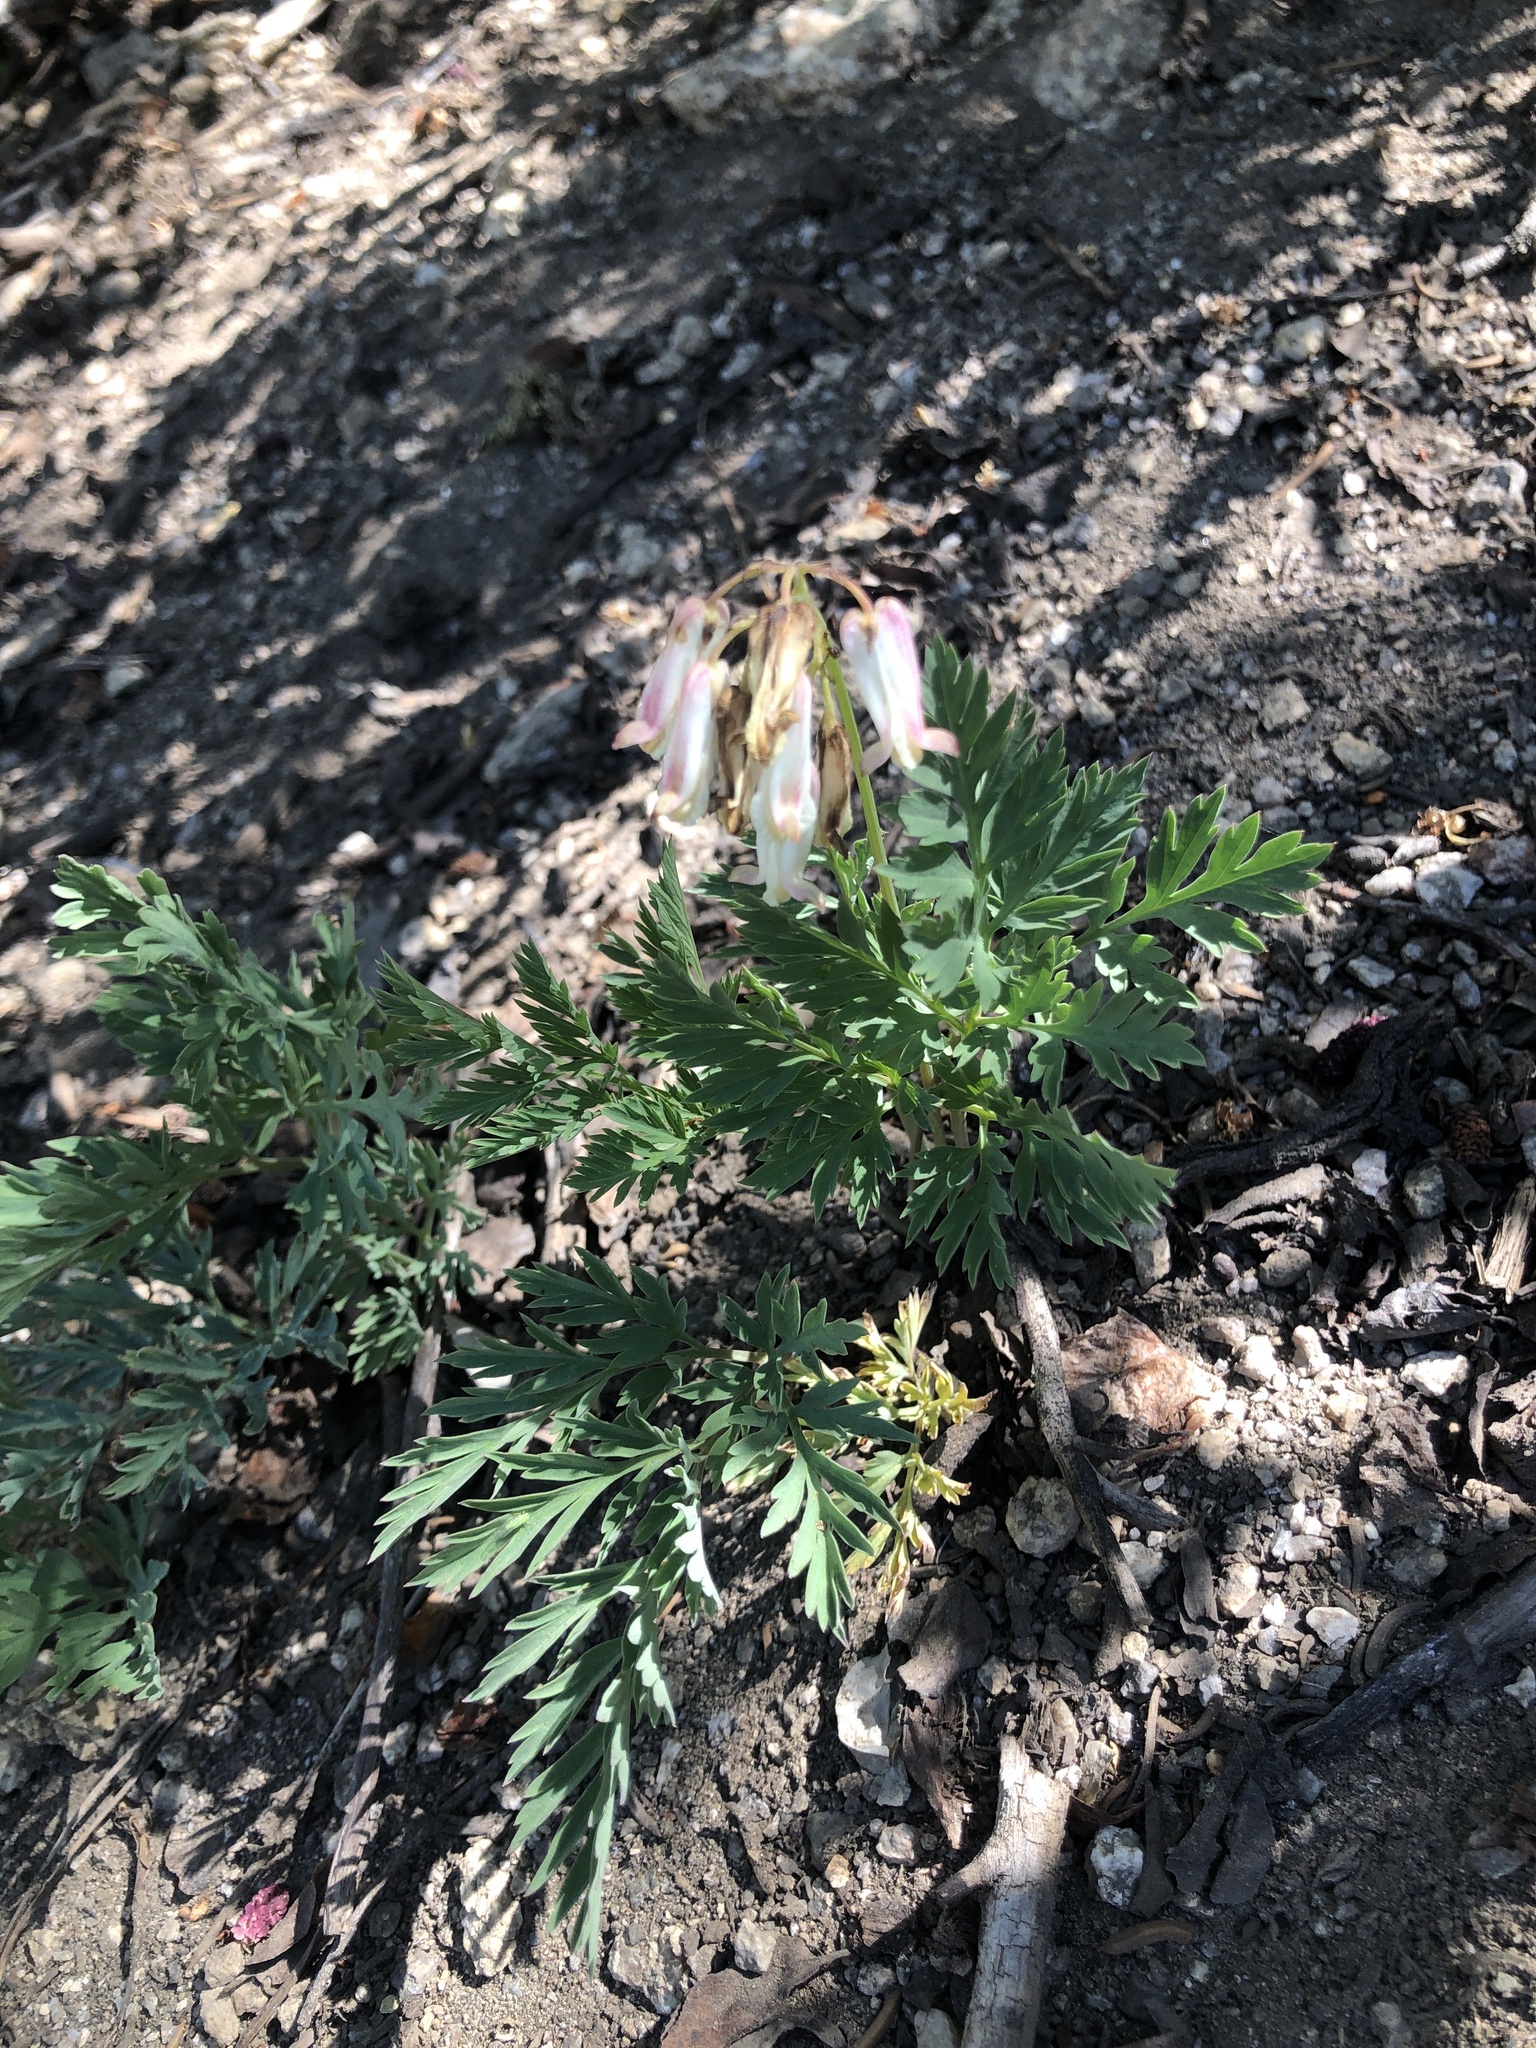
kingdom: Plantae
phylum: Tracheophyta
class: Magnoliopsida
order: Ranunculales
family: Papaveraceae
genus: Dicentra
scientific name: Dicentra formosa
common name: Bleeding-heart
